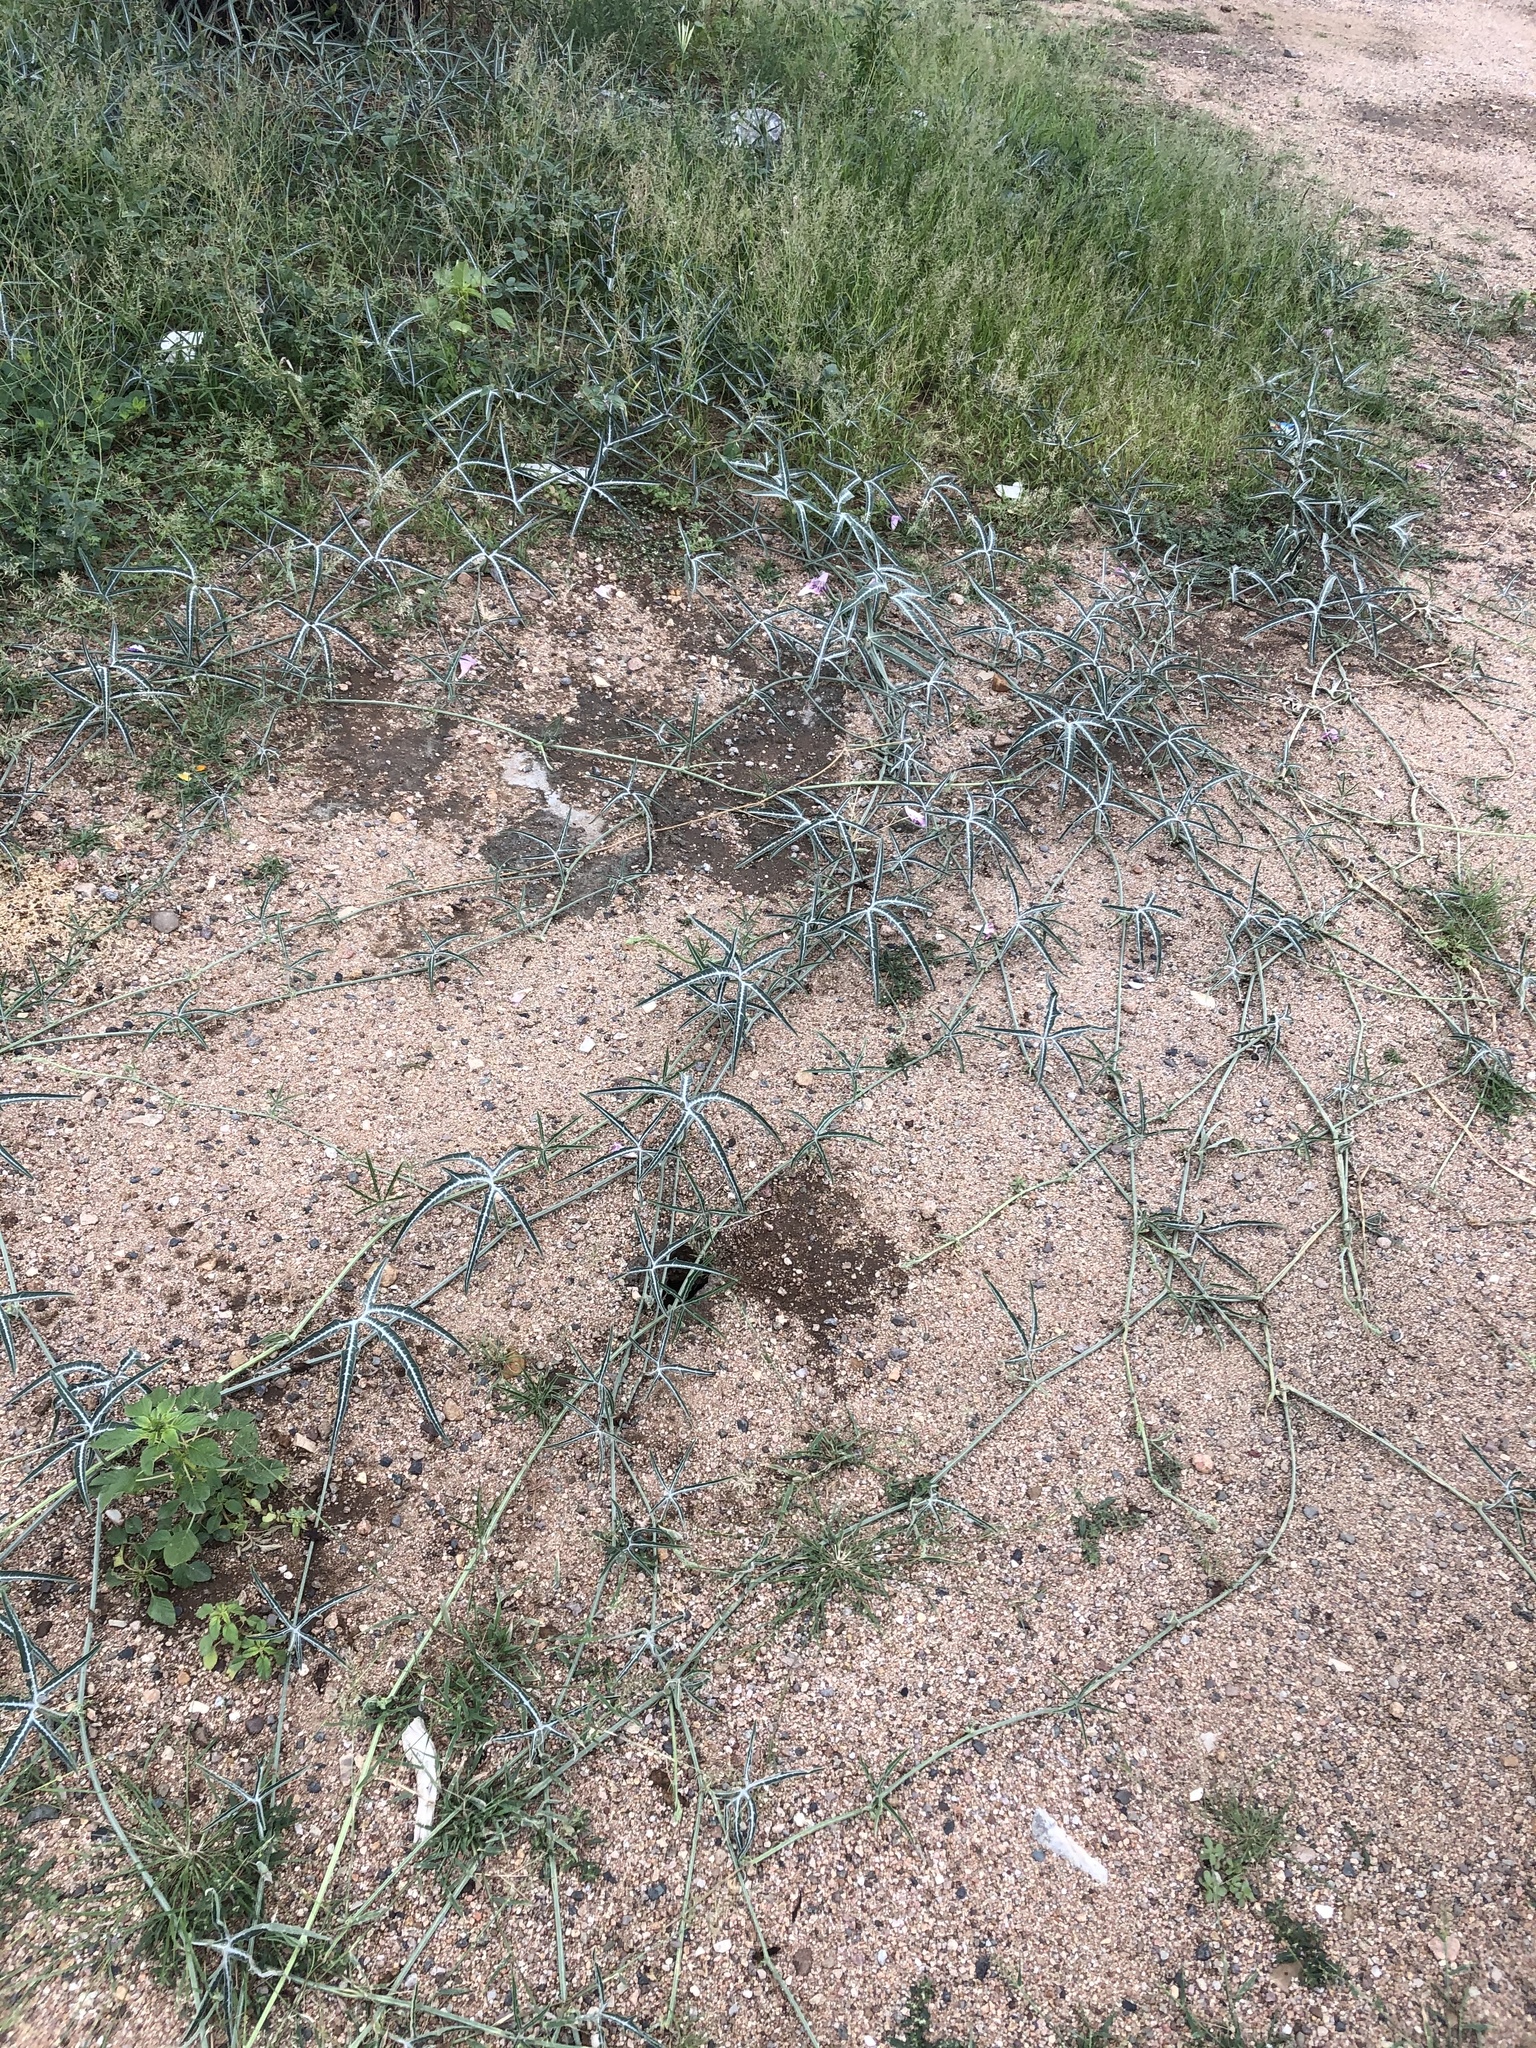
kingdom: Plantae
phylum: Tracheophyta
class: Magnoliopsida
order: Cucurbitales
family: Cucurbitaceae
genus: Cucurbita
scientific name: Cucurbita digitata
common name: Finger-leaf gourd
